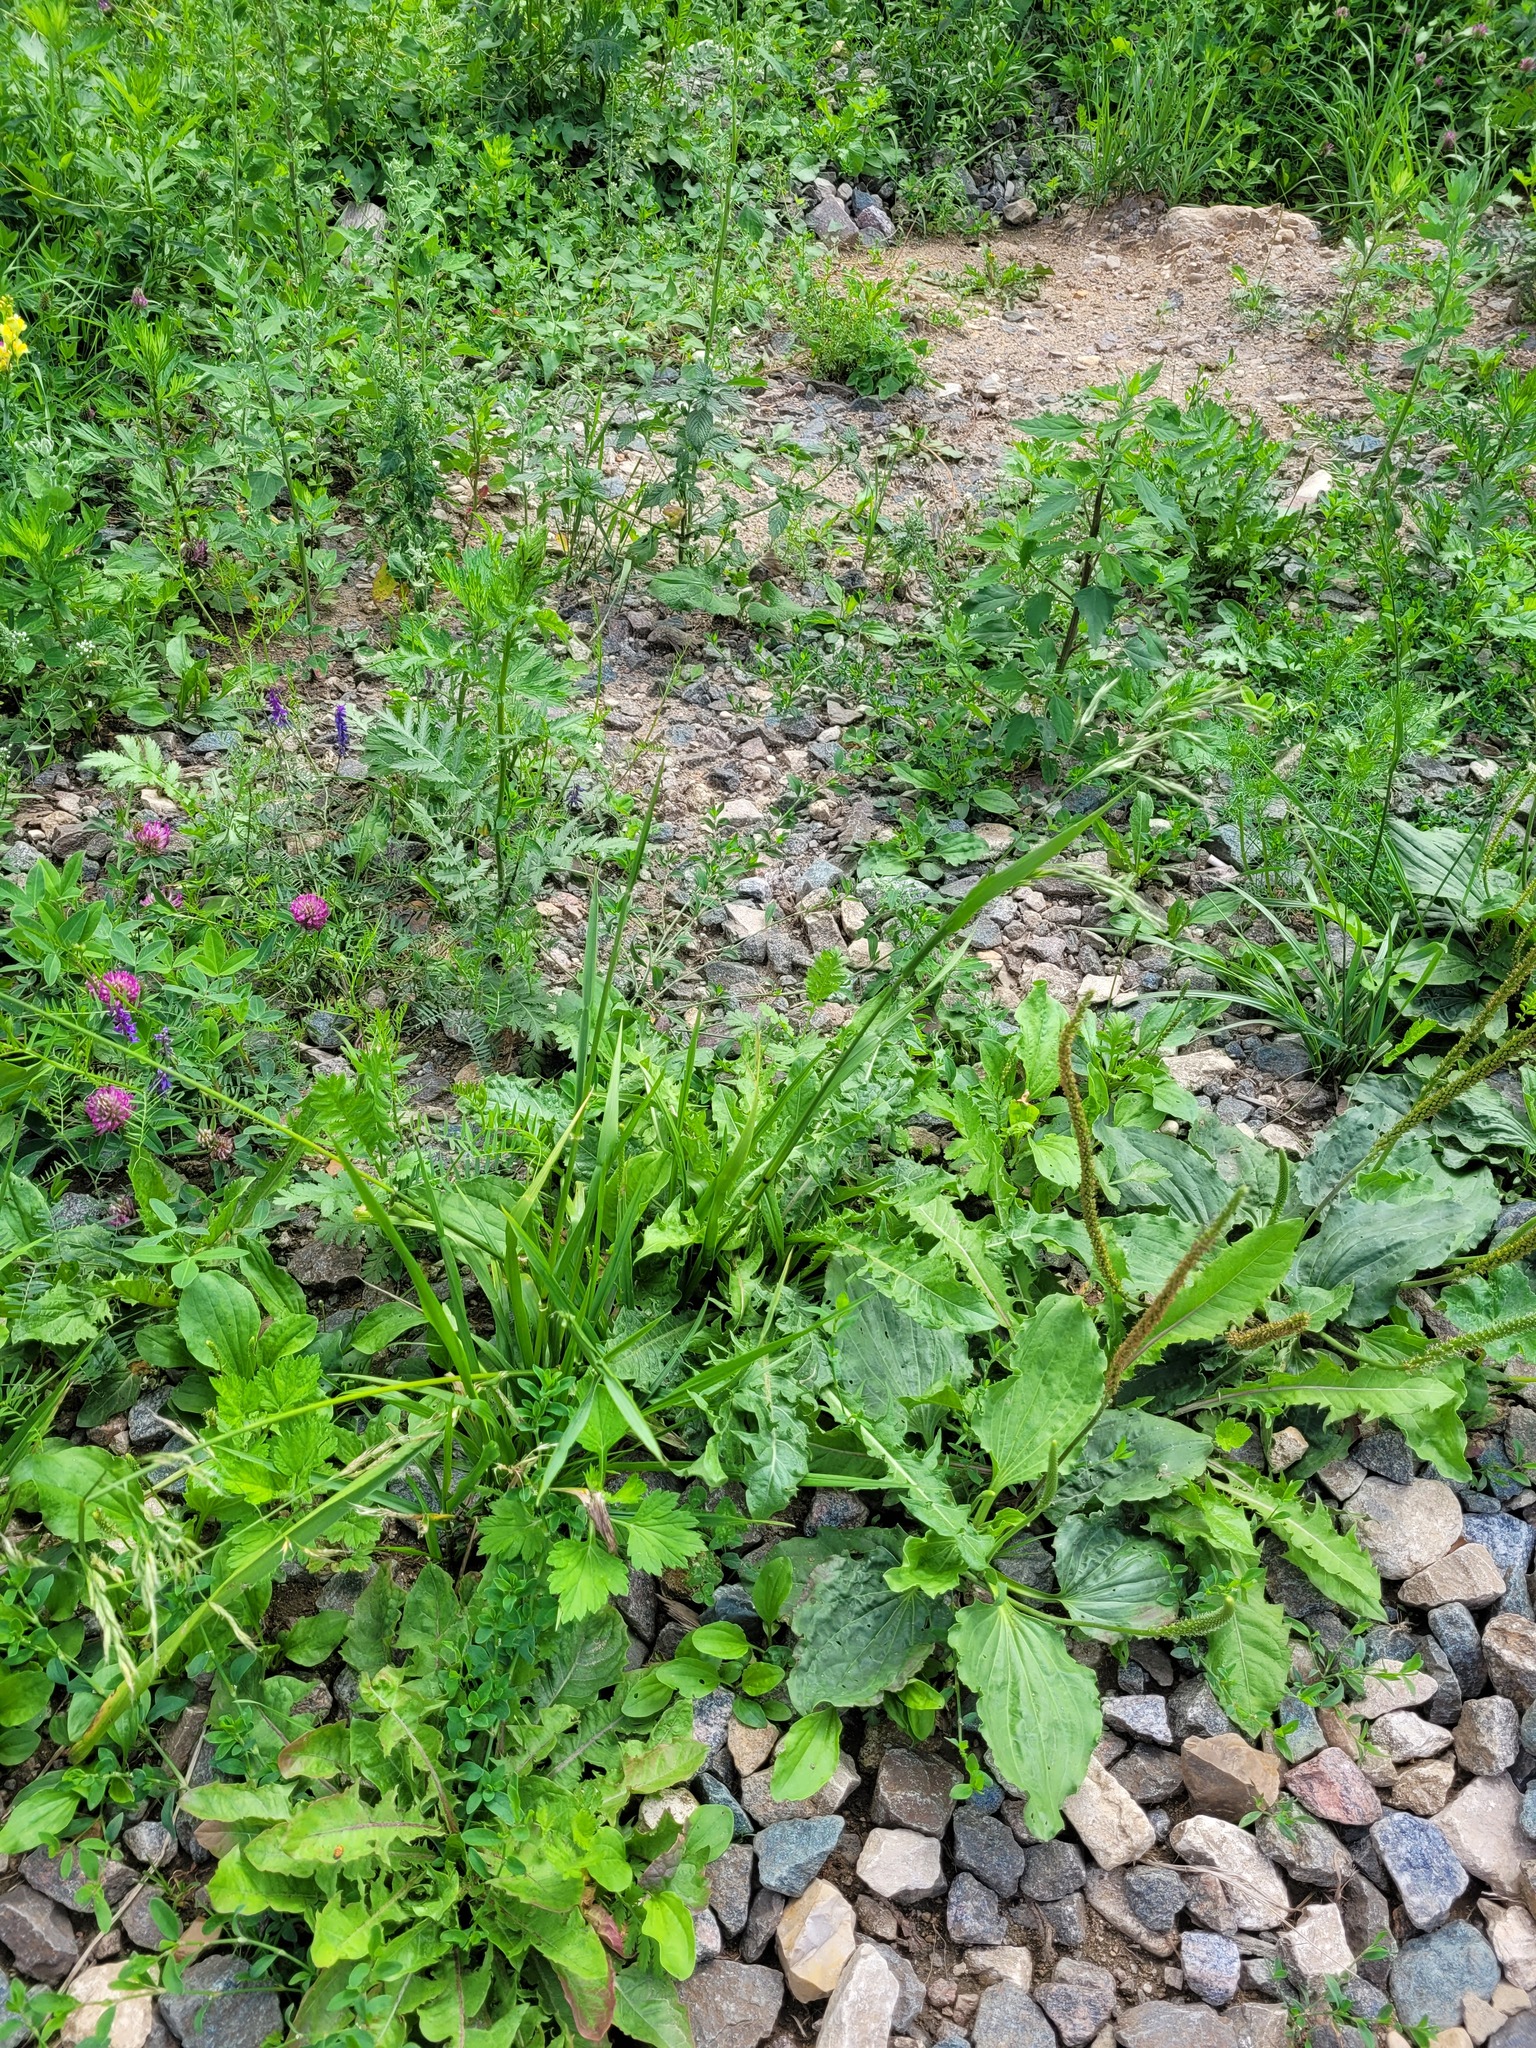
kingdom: Plantae
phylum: Tracheophyta
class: Liliopsida
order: Poales
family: Poaceae
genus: Lolium
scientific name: Lolium giganteum
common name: Giant fescue
